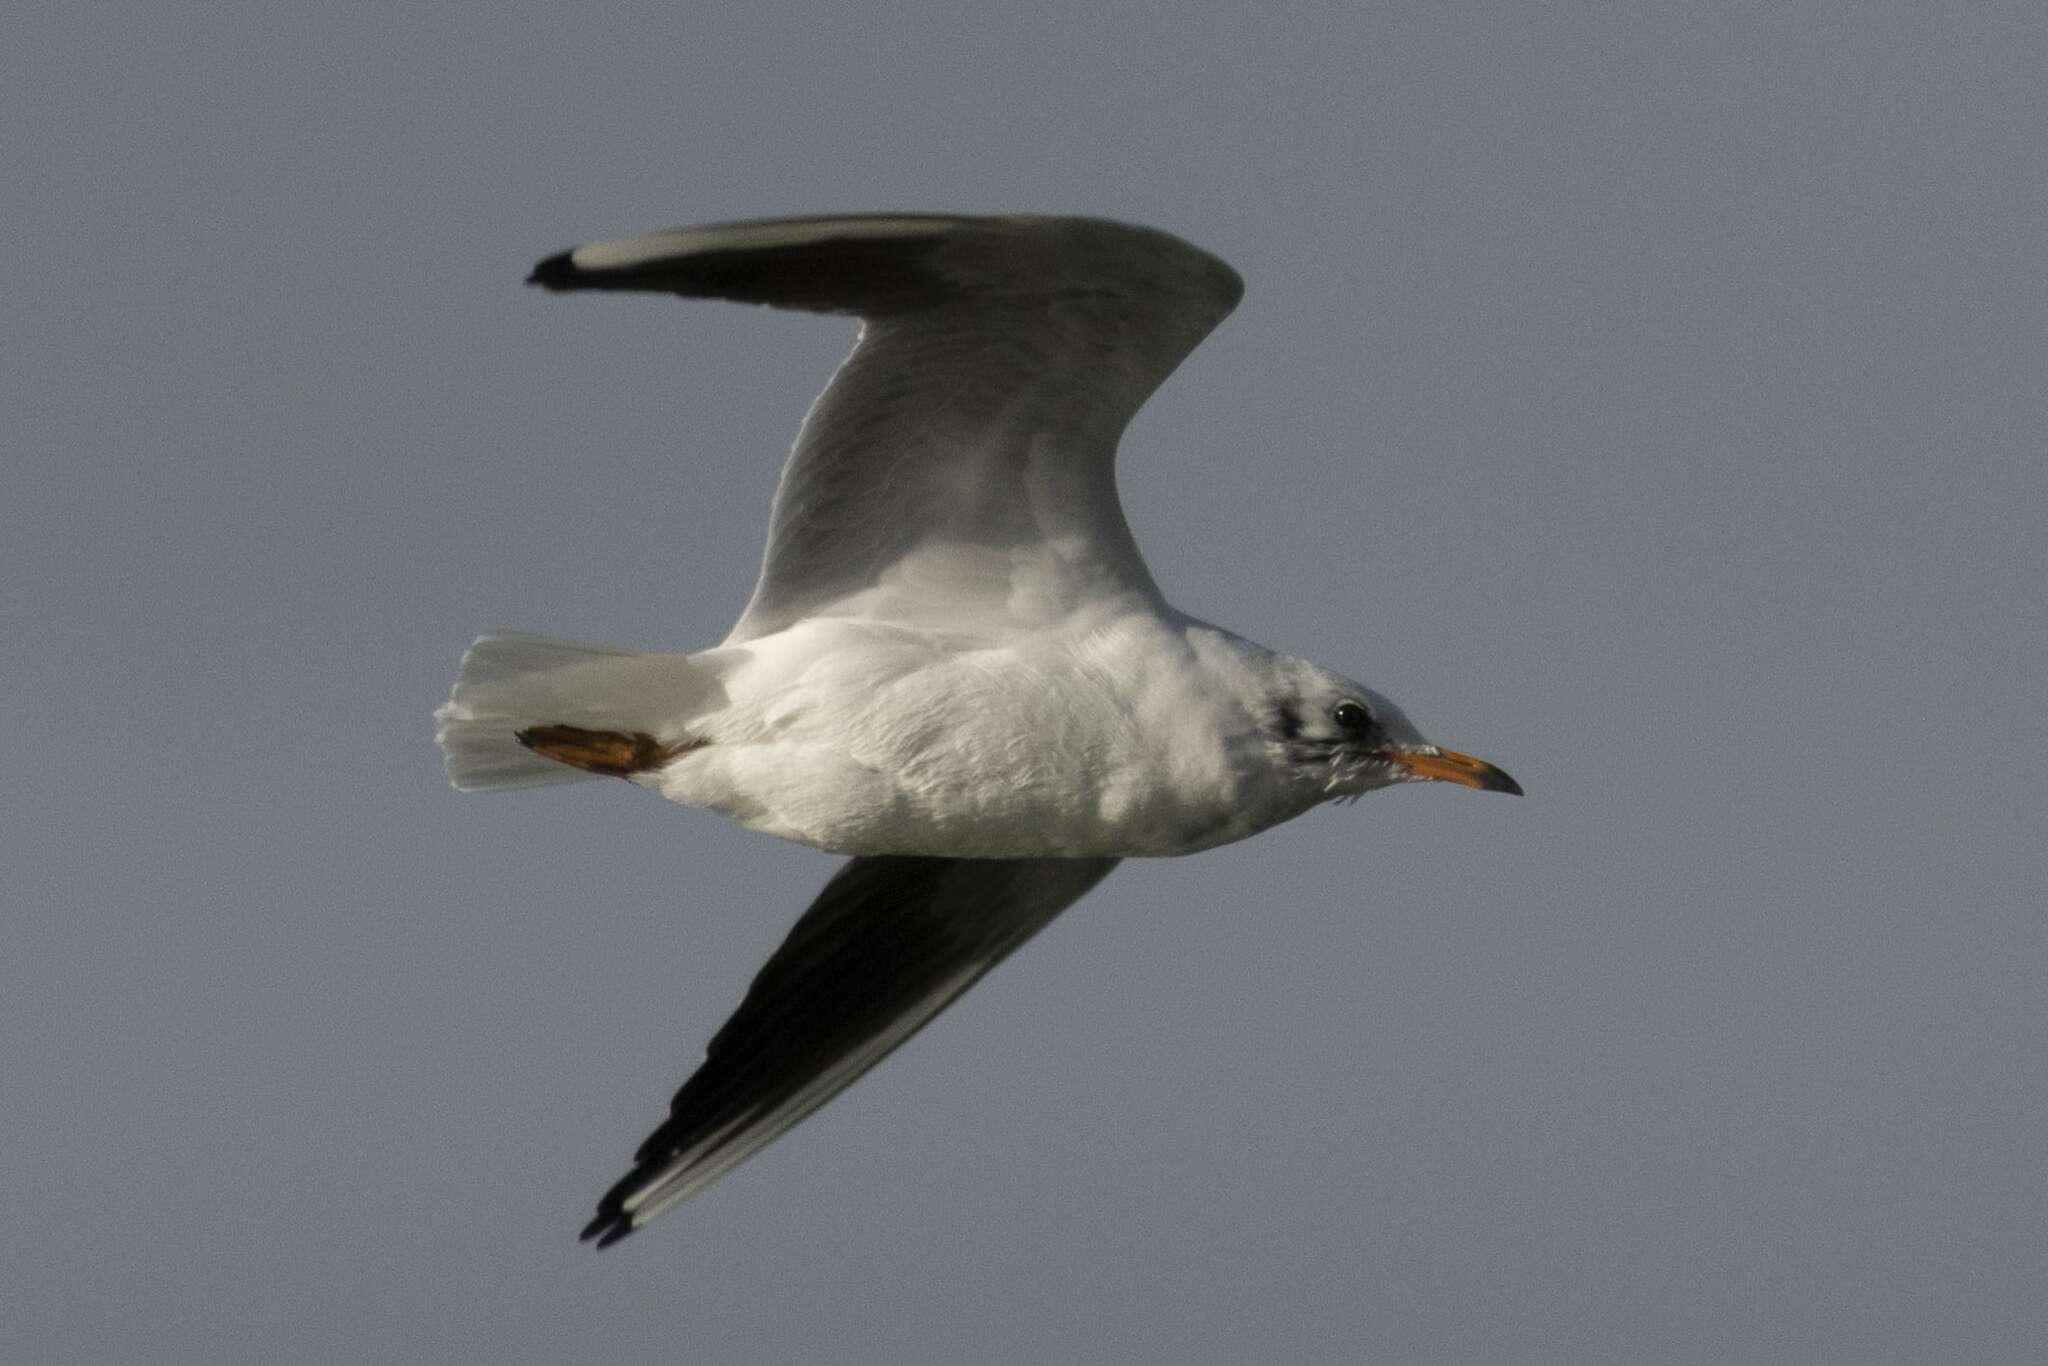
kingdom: Animalia
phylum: Chordata
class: Aves
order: Charadriiformes
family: Laridae
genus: Chroicocephalus
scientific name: Chroicocephalus ridibundus
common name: Black-headed gull
